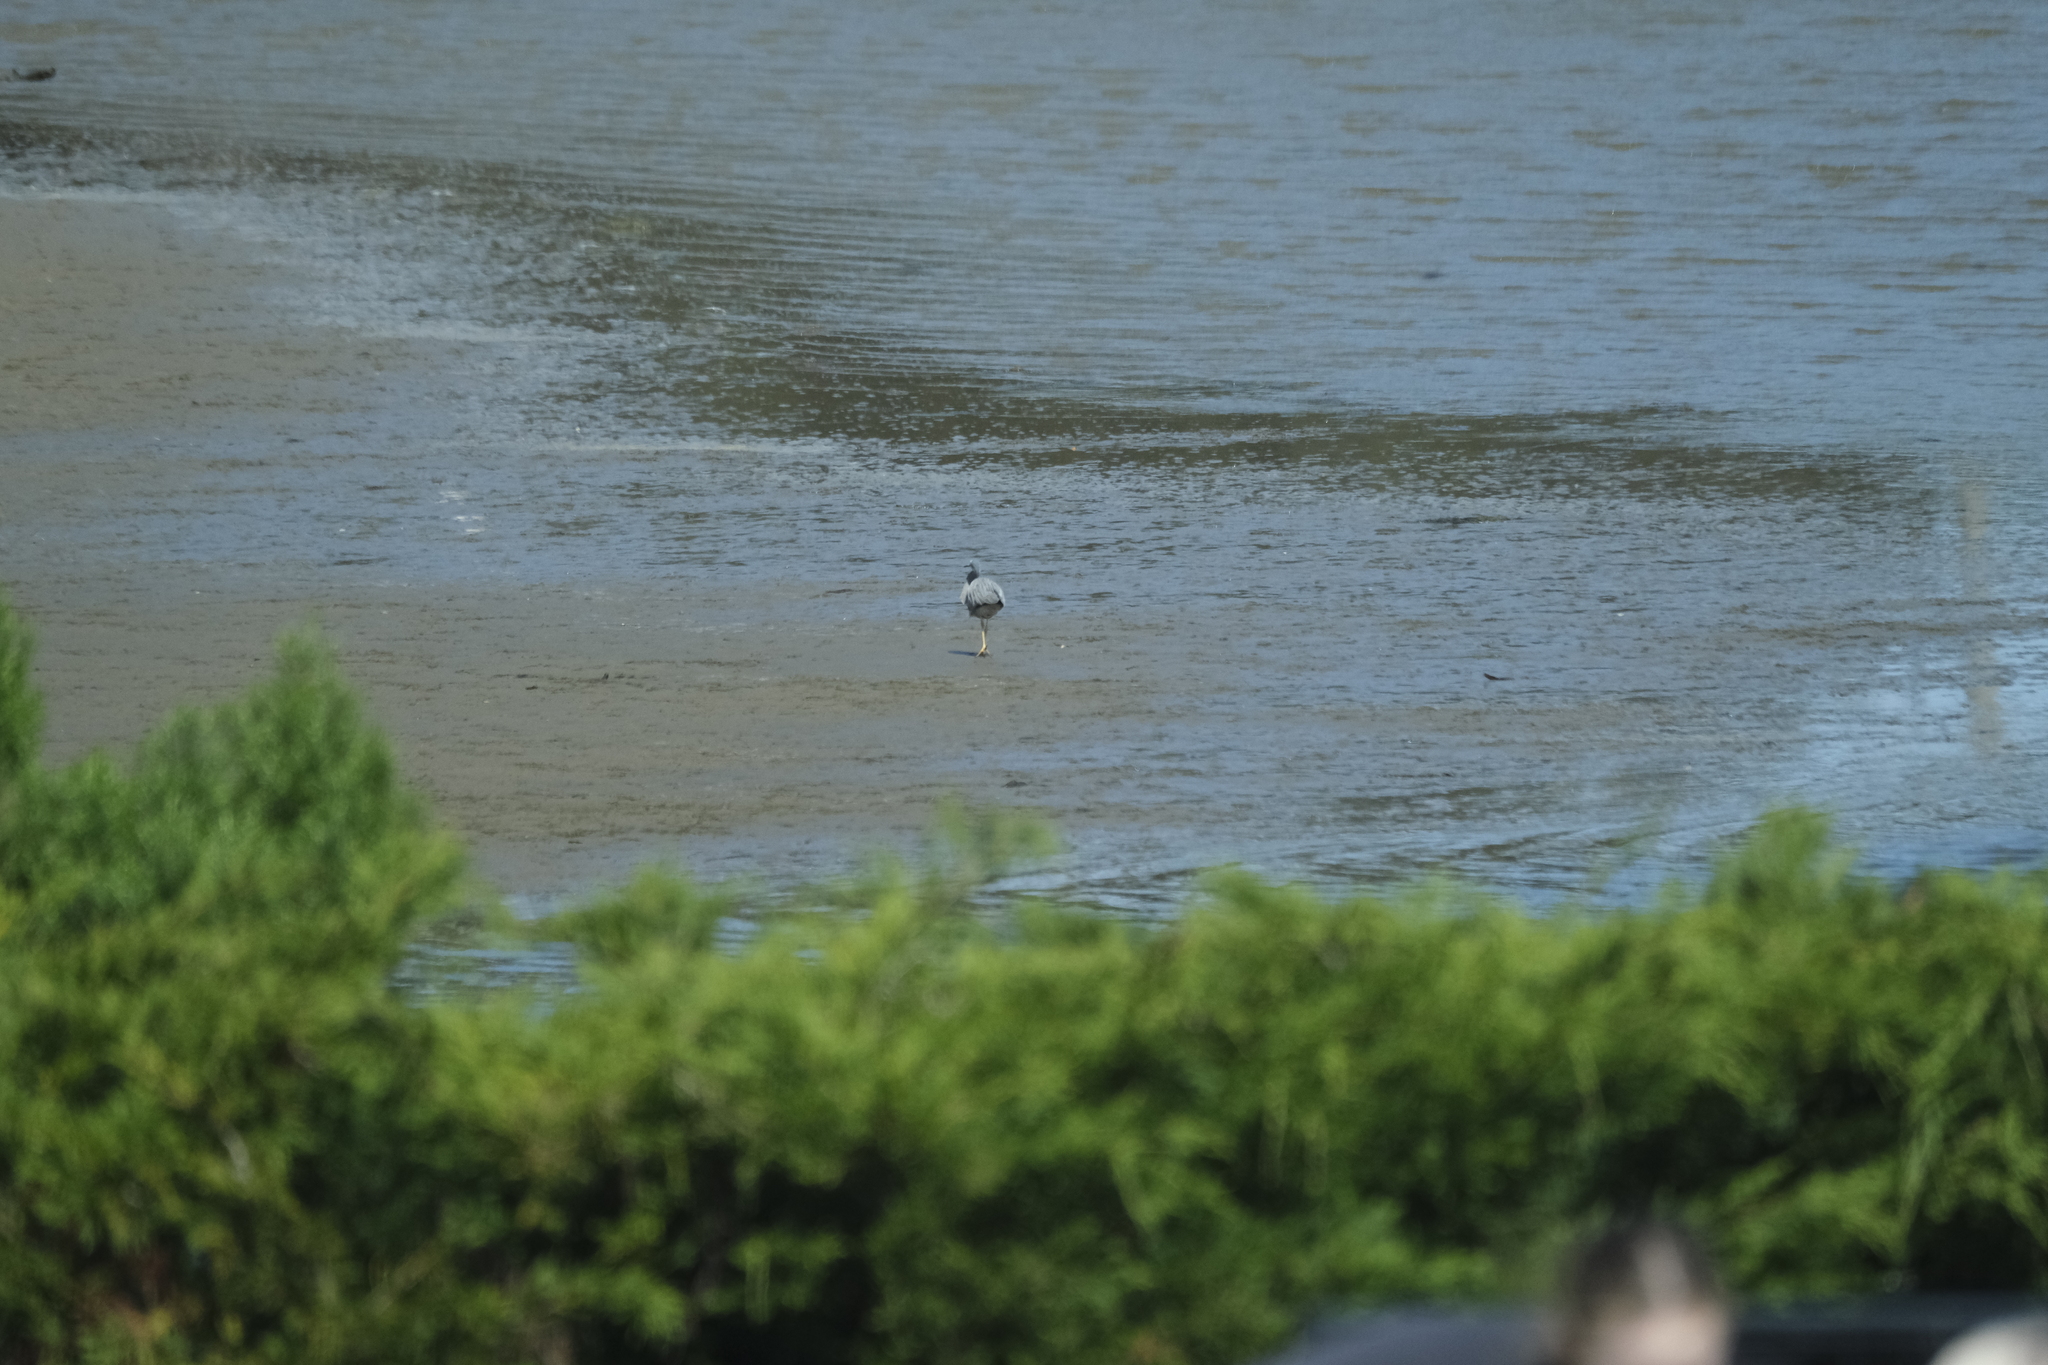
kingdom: Animalia
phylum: Chordata
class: Aves
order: Pelecaniformes
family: Ardeidae
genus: Egretta
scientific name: Egretta novaehollandiae
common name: White-faced heron
